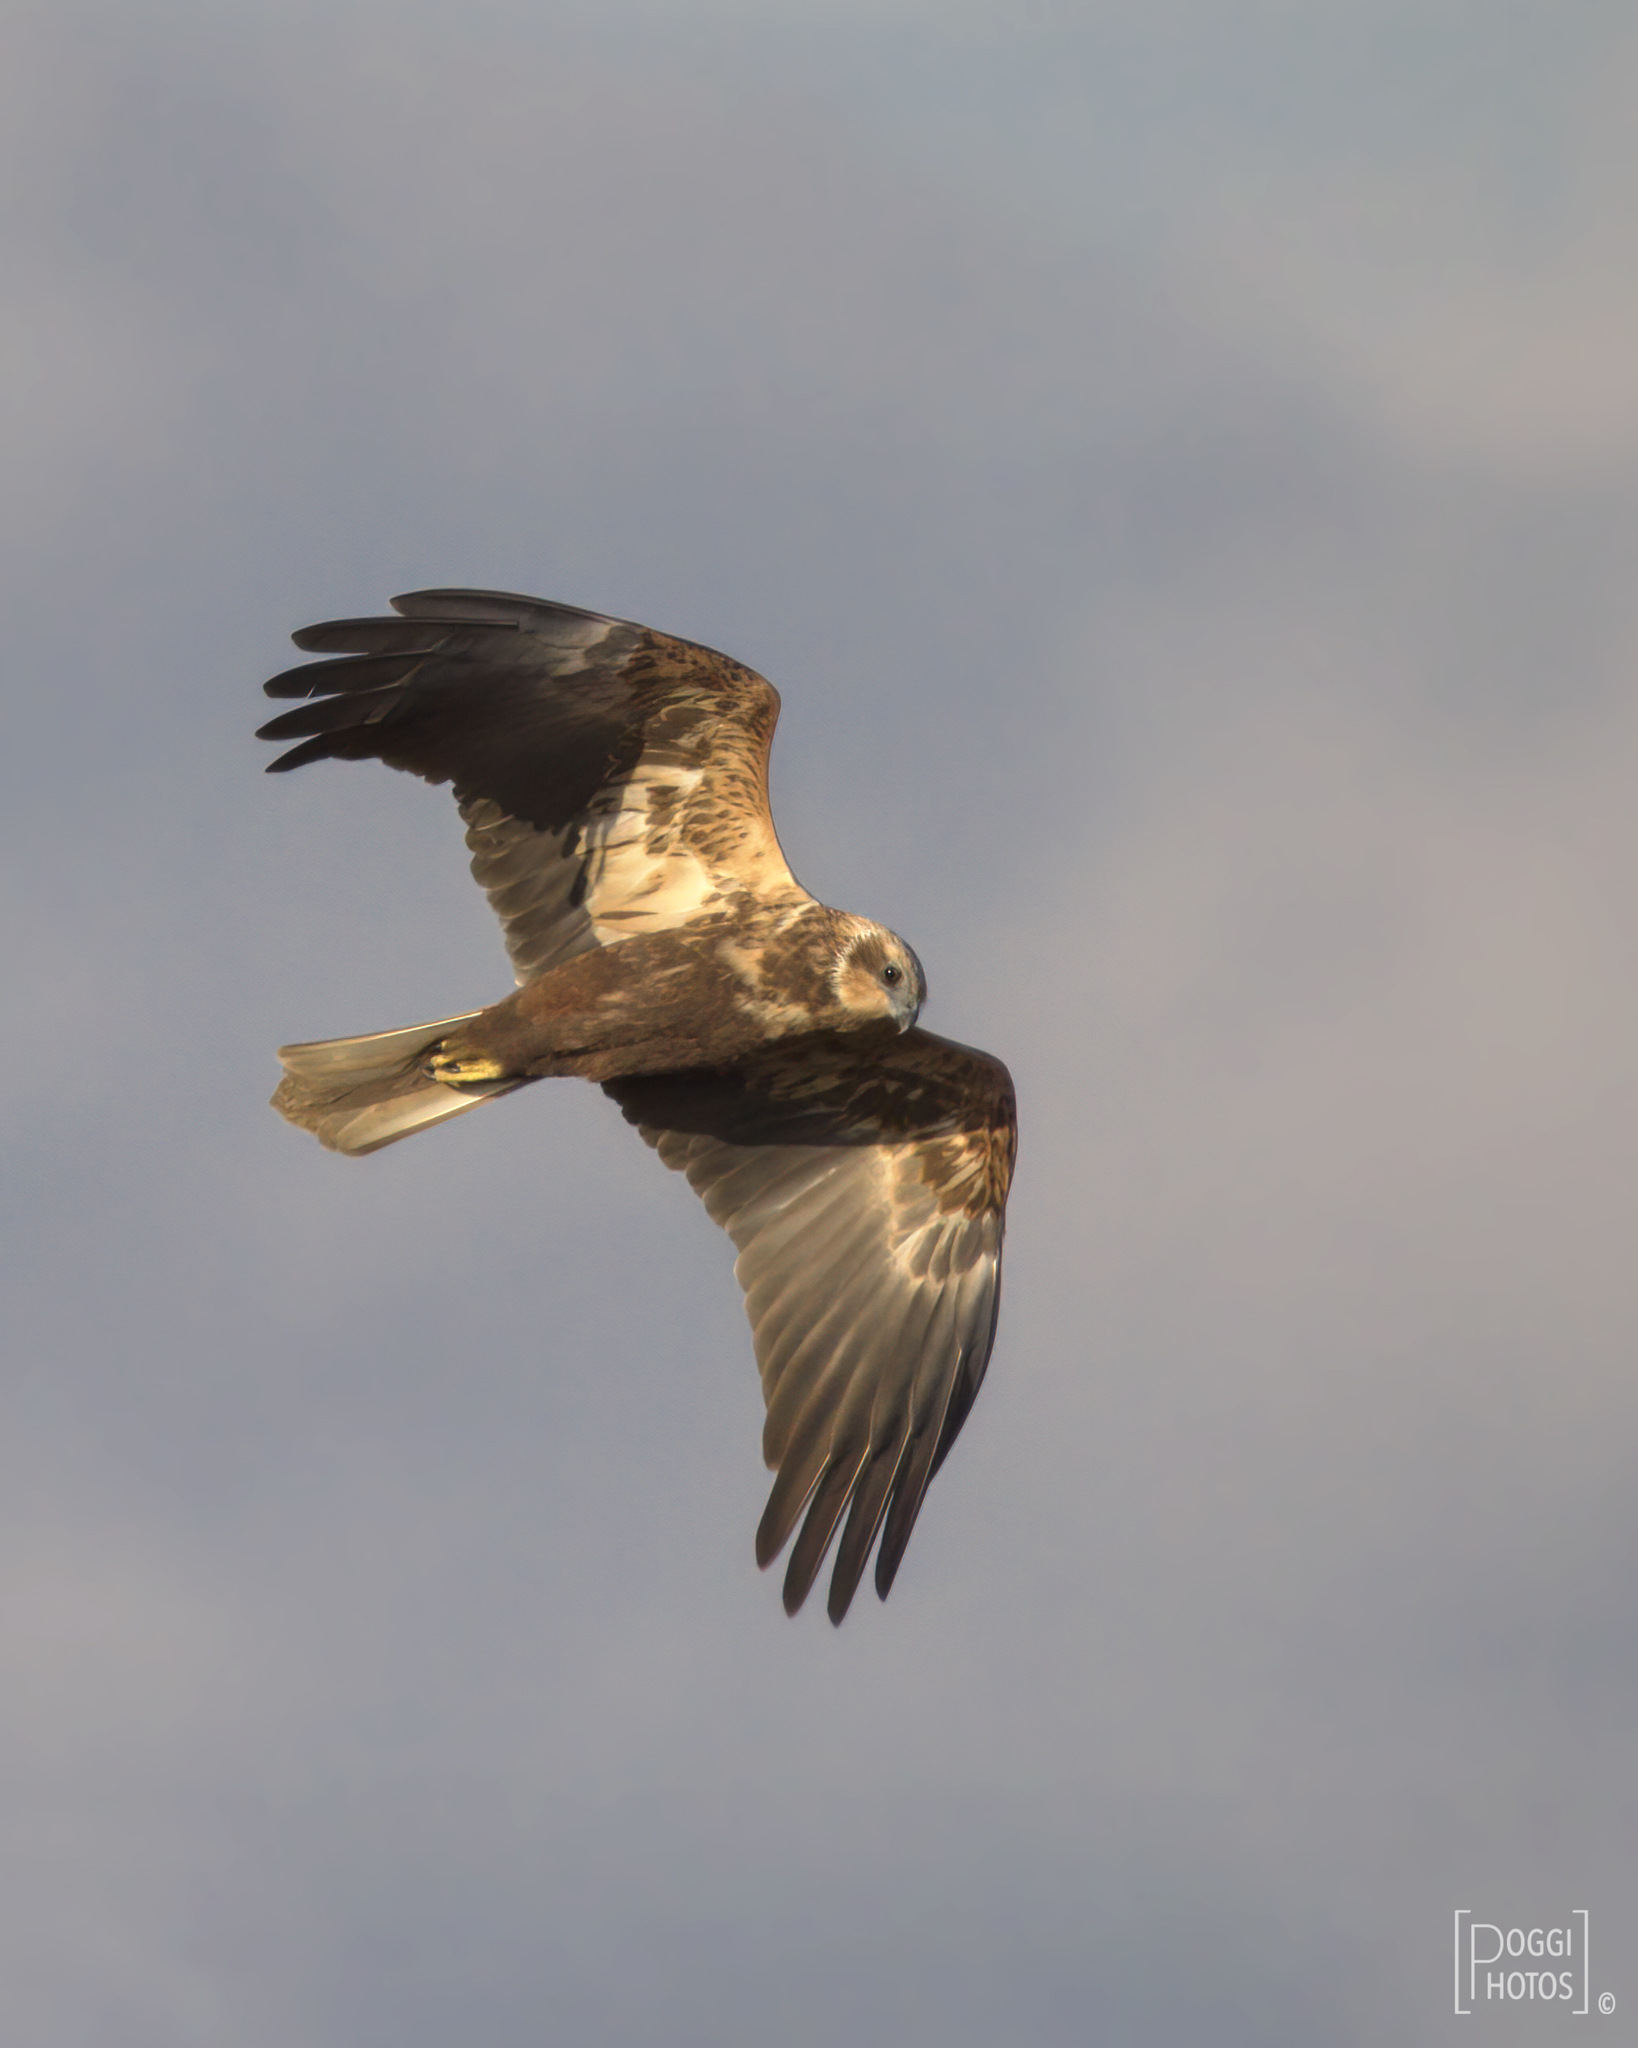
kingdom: Animalia
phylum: Chordata
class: Aves
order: Accipitriformes
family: Accipitridae
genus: Circus
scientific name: Circus aeruginosus
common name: Western marsh harrier
